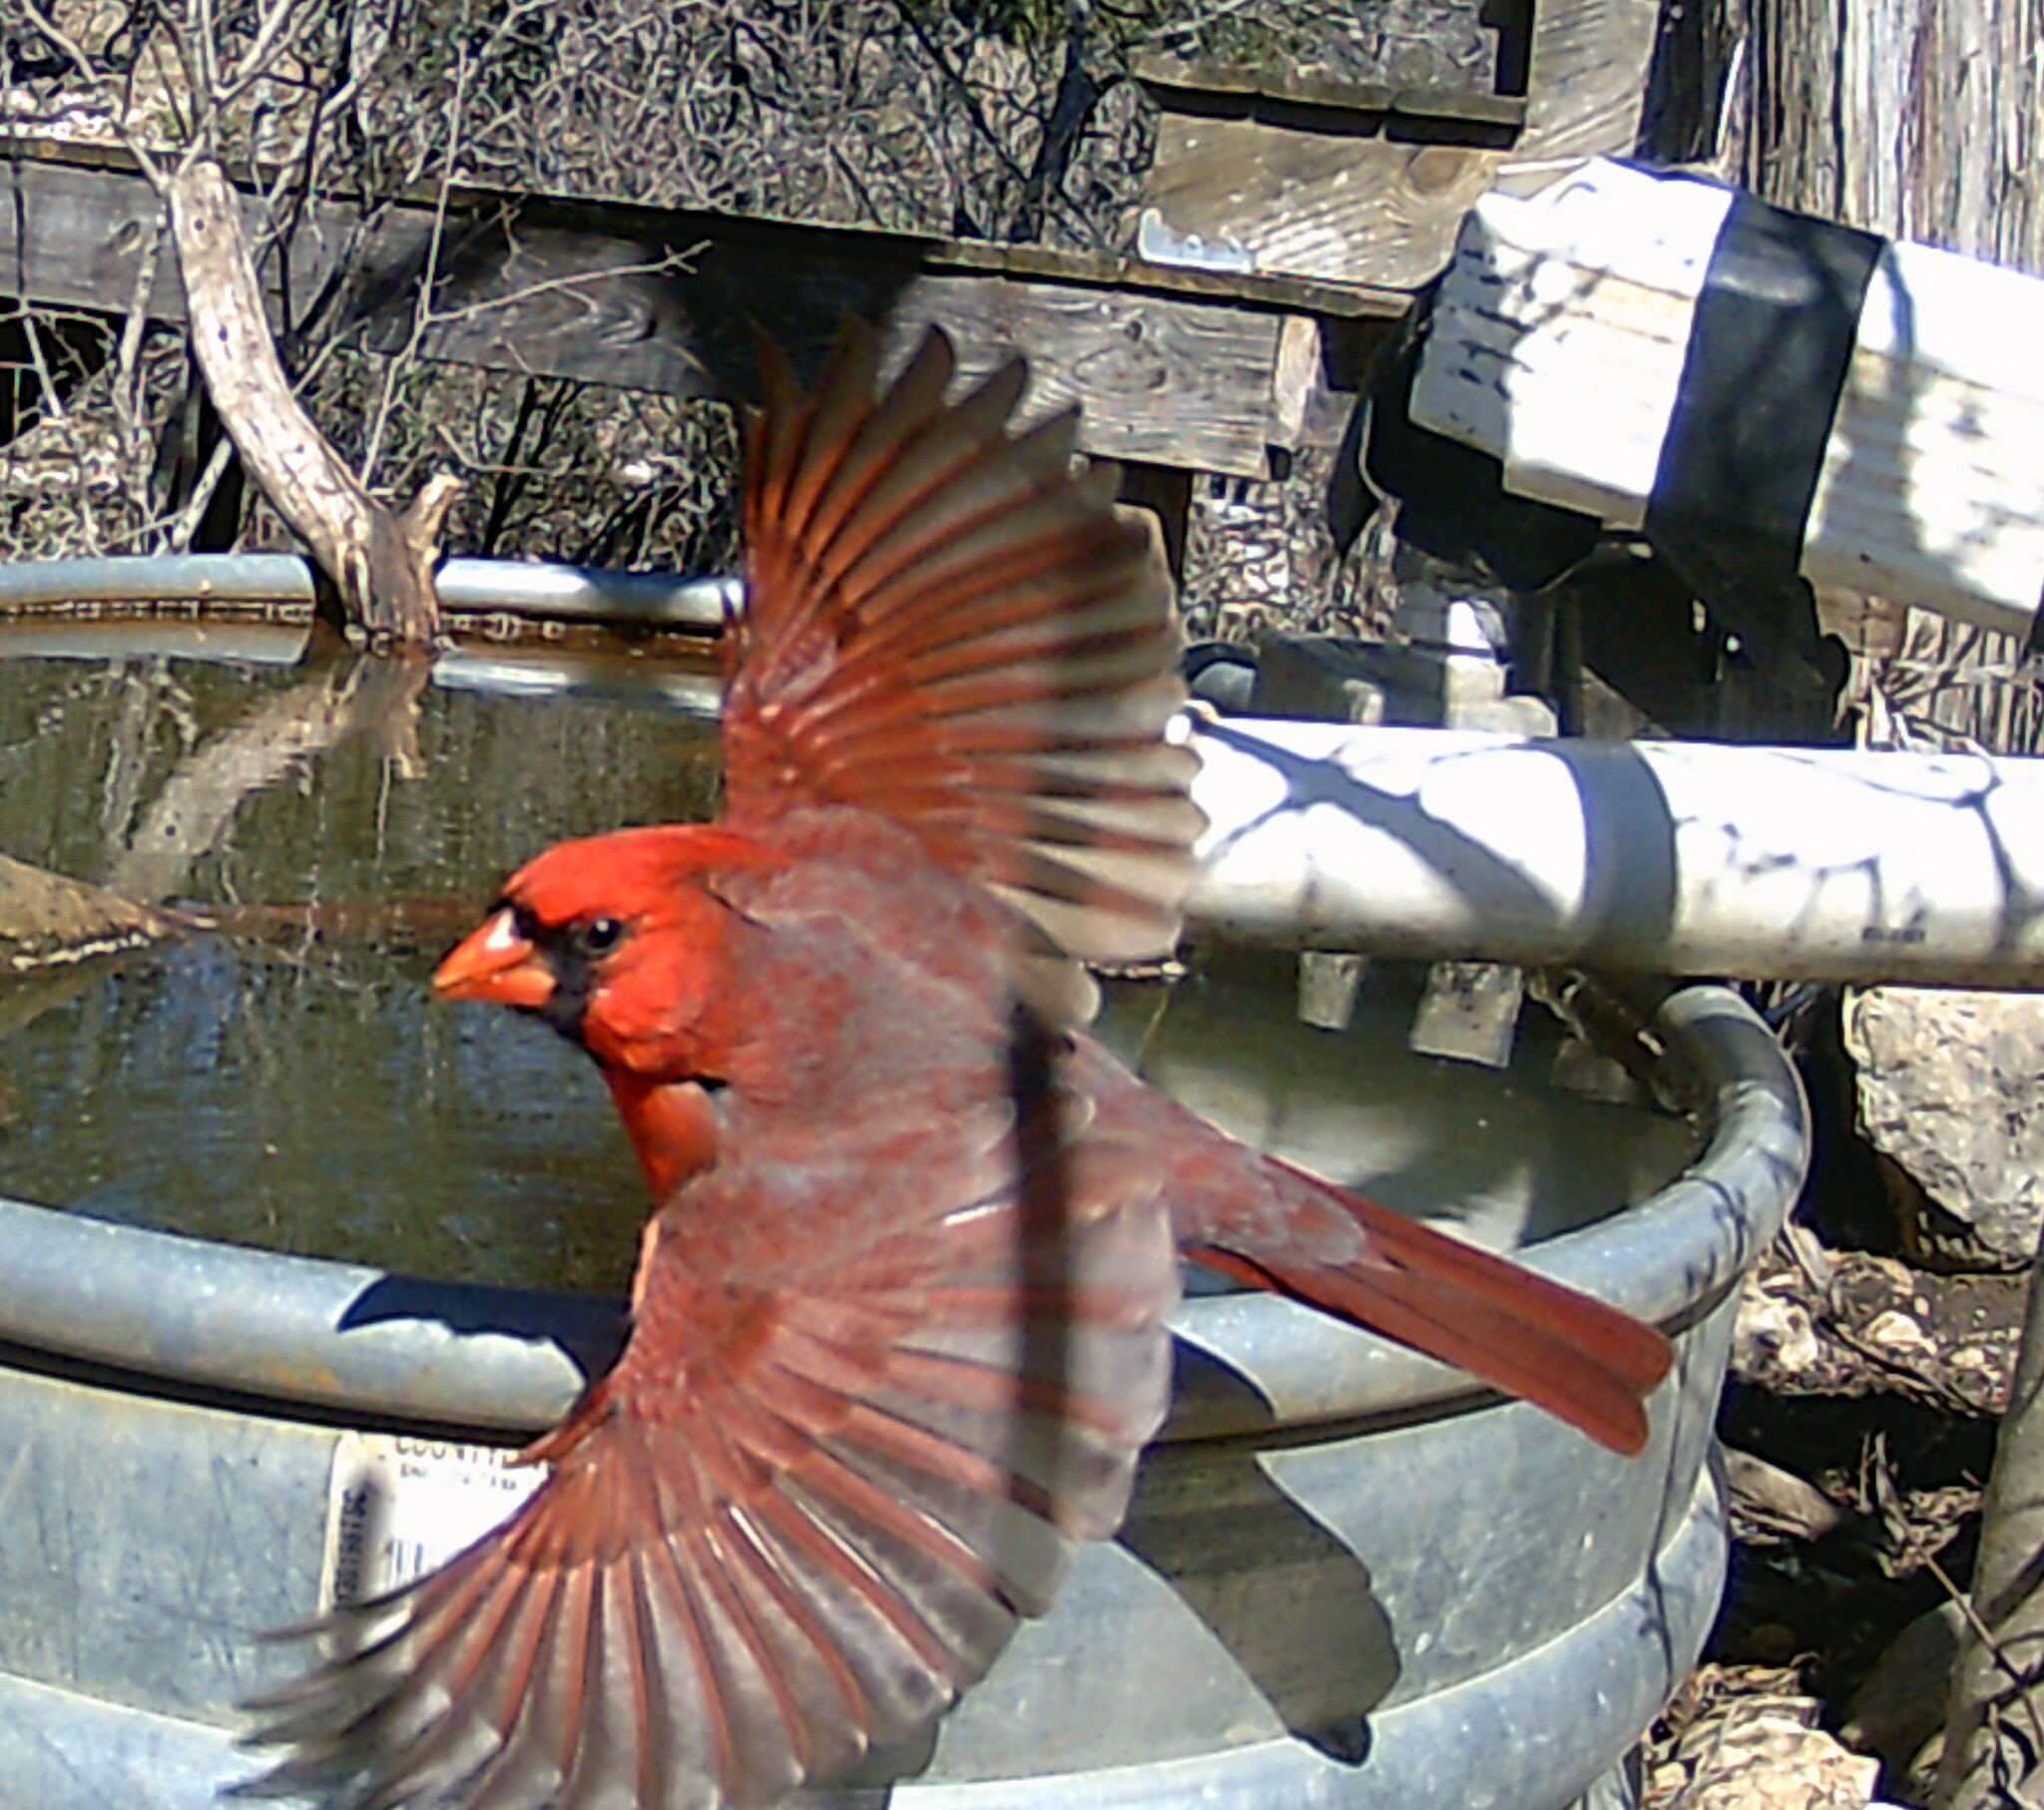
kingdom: Animalia
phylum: Chordata
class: Aves
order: Passeriformes
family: Cardinalidae
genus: Cardinalis
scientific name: Cardinalis cardinalis
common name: Northern cardinal
